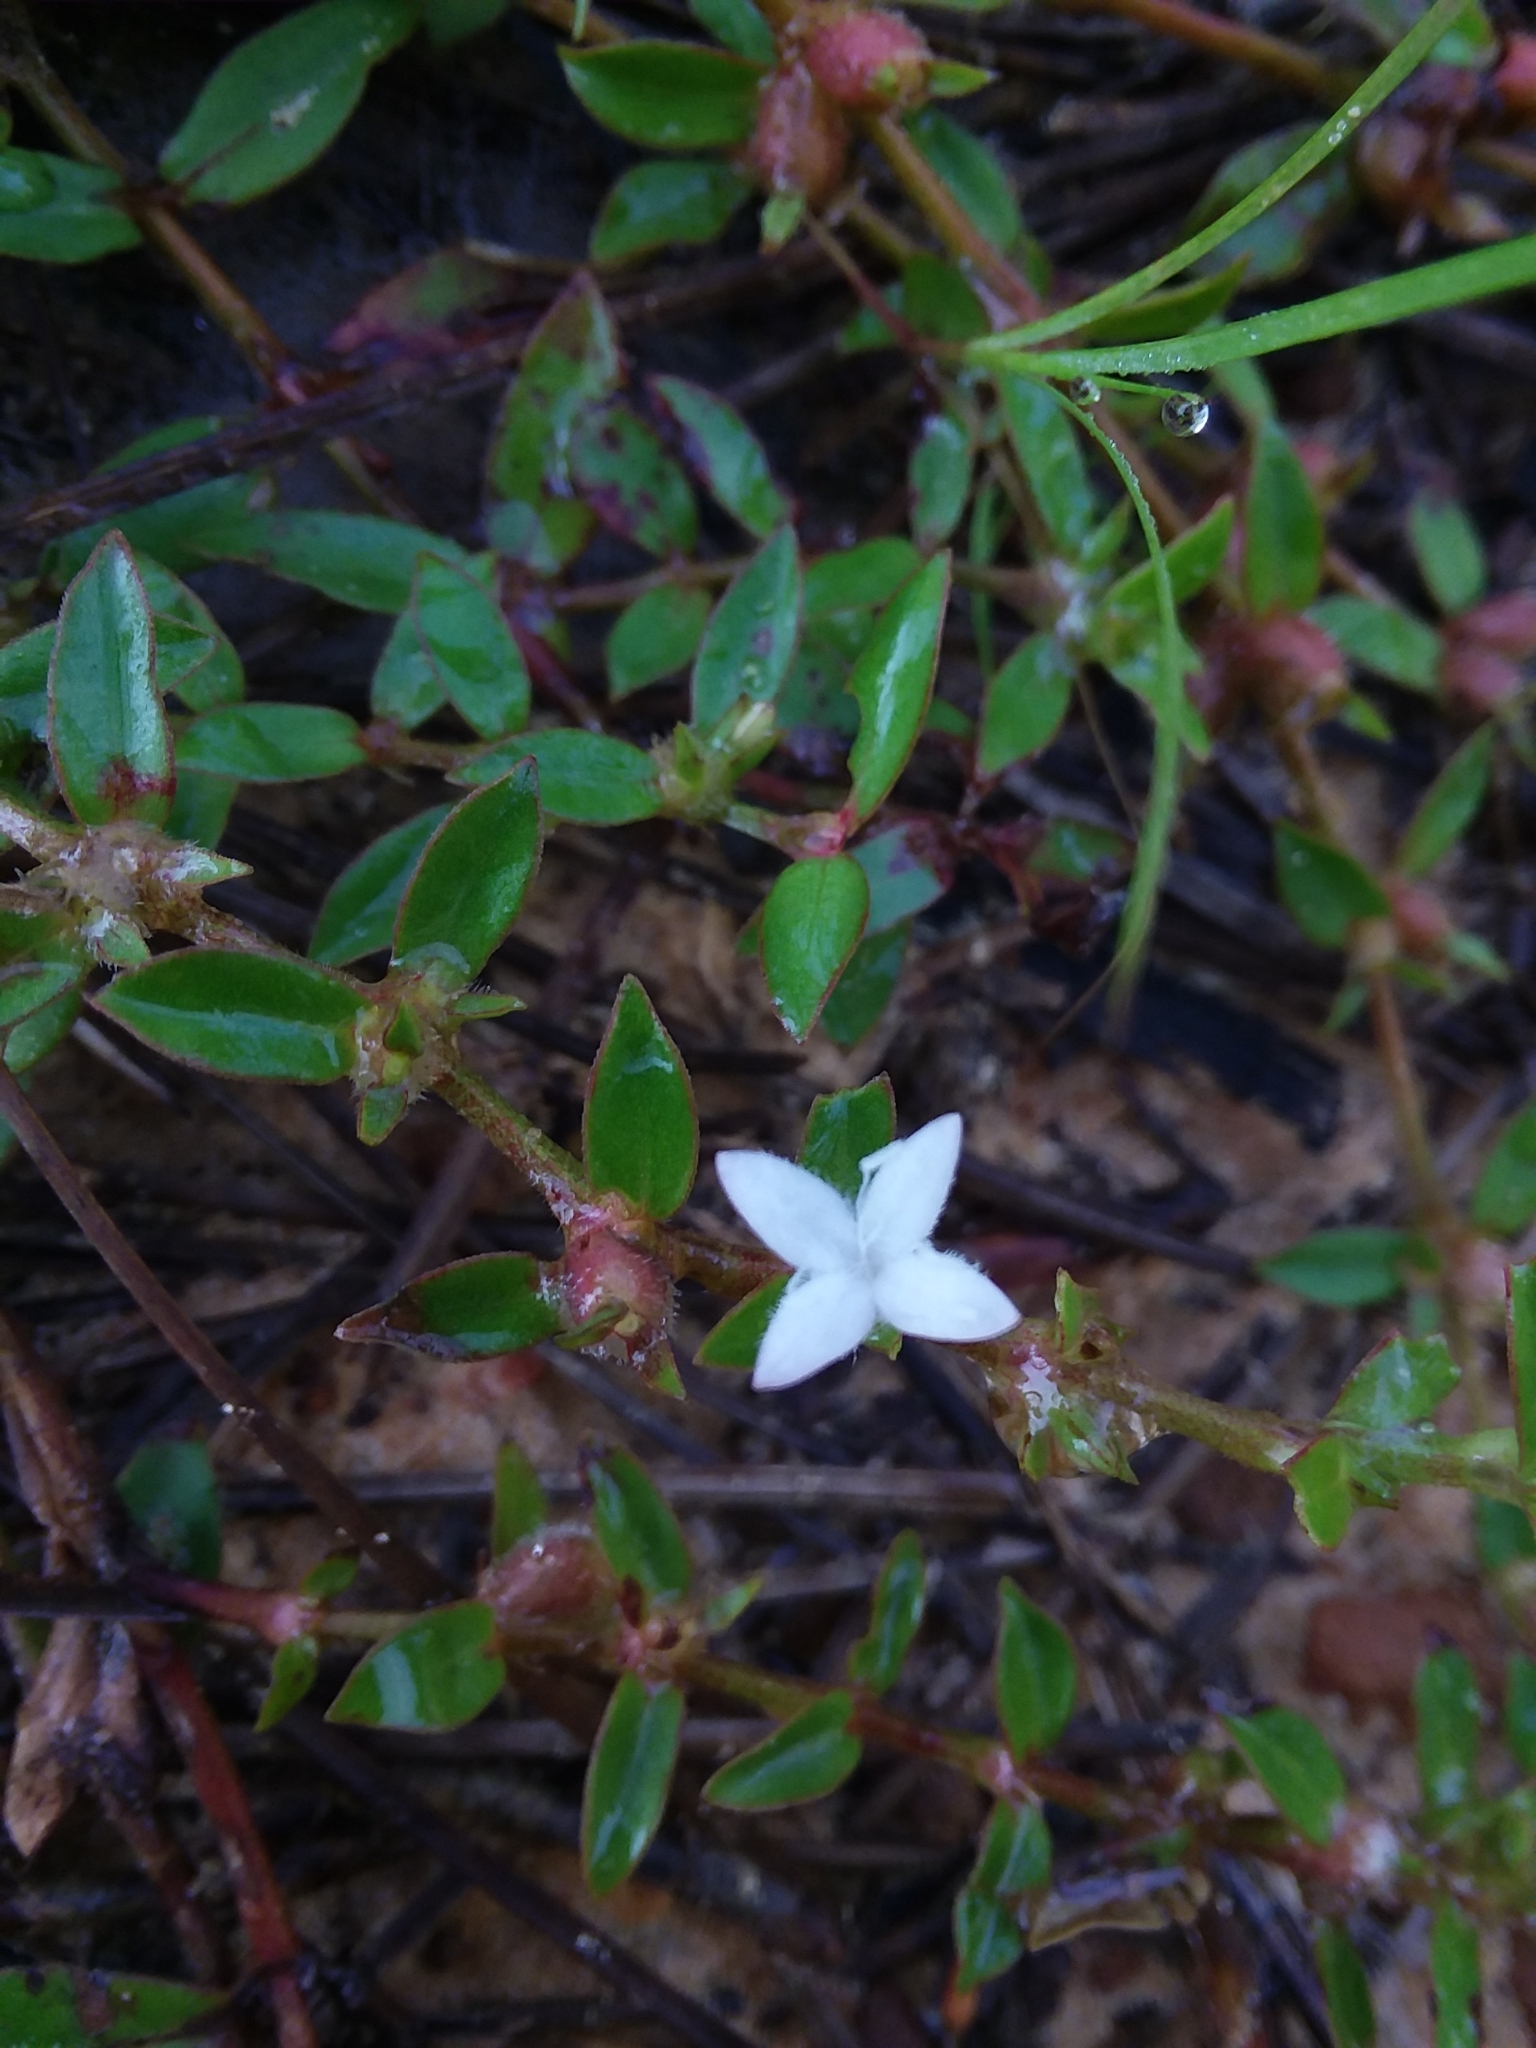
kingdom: Plantae
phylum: Tracheophyta
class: Magnoliopsida
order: Gentianales
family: Rubiaceae
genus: Diodia
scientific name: Diodia virginiana
